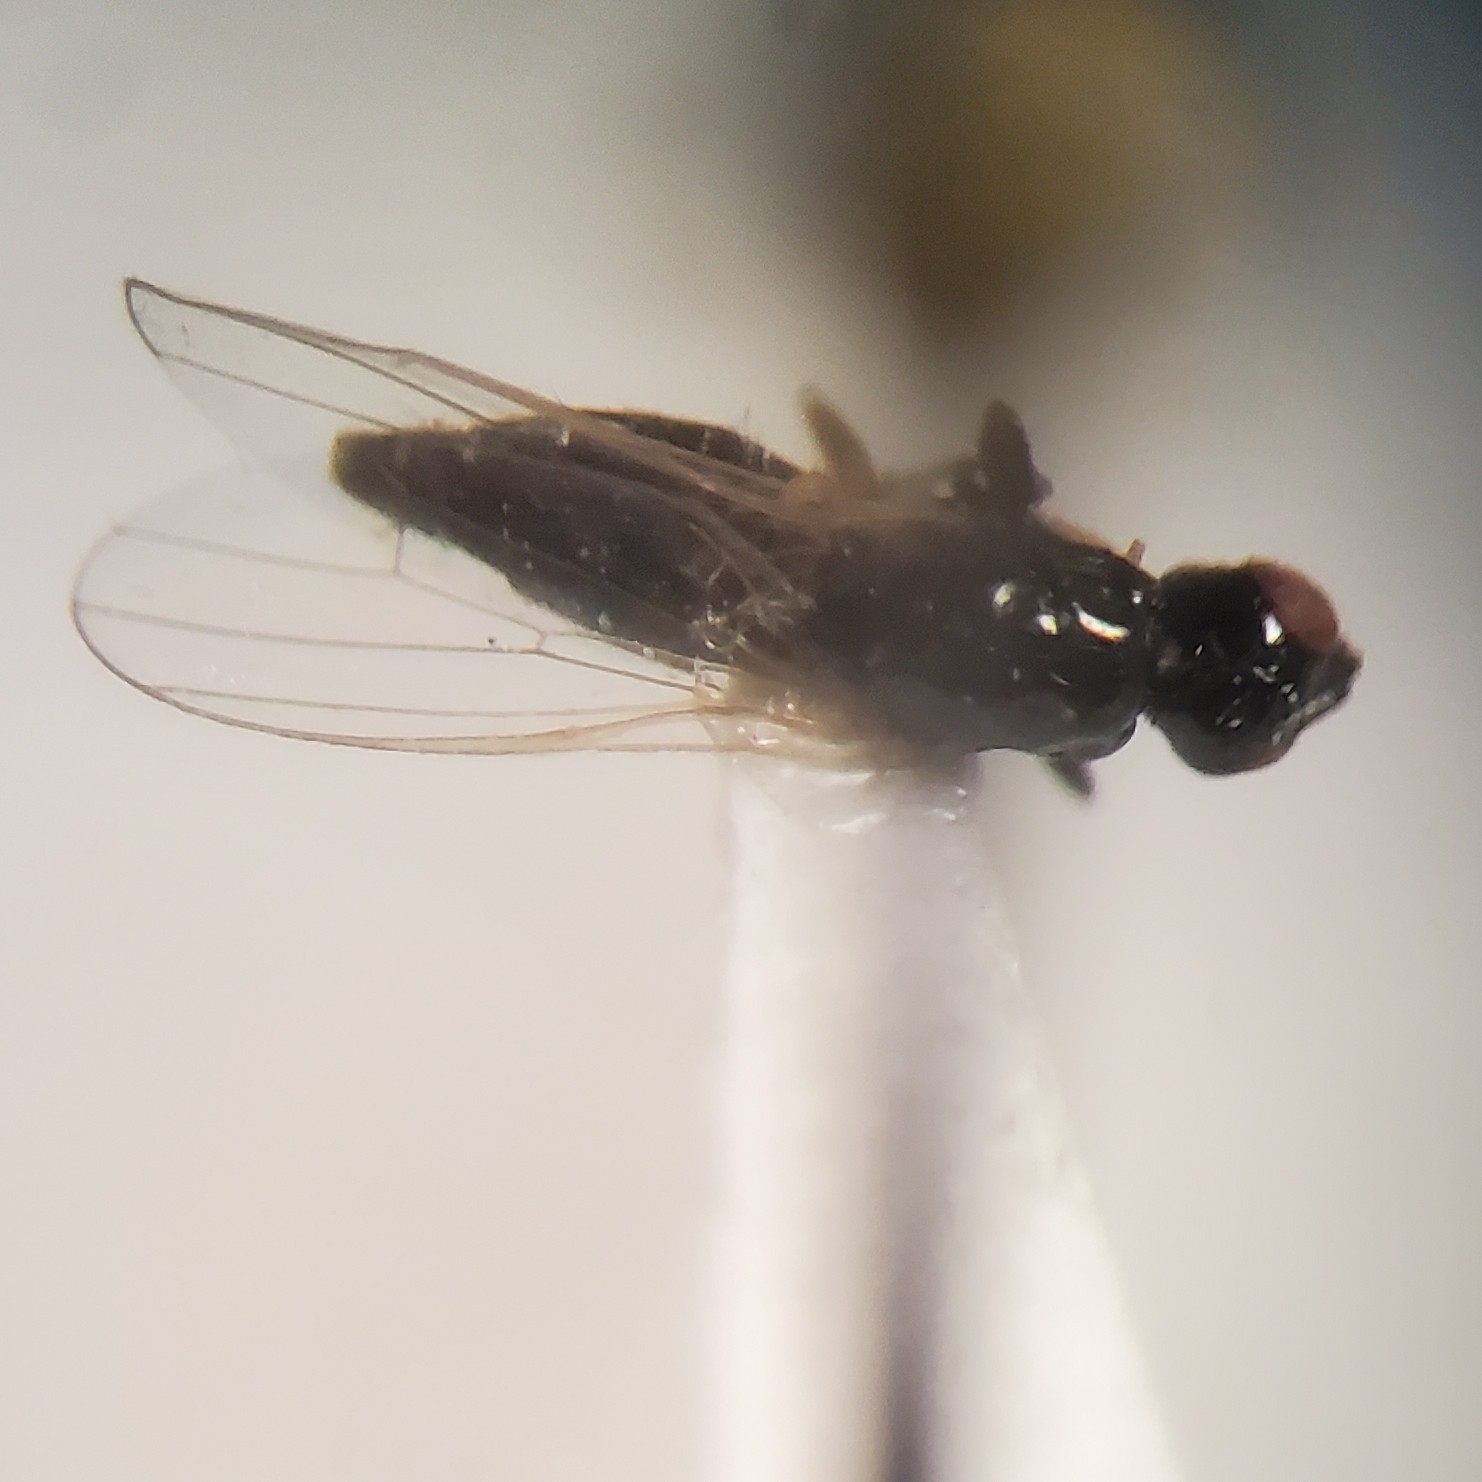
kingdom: Animalia
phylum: Arthropoda
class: Insecta
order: Diptera
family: Piophilidae
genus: Prochyliza
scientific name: Prochyliza xanthostoma
